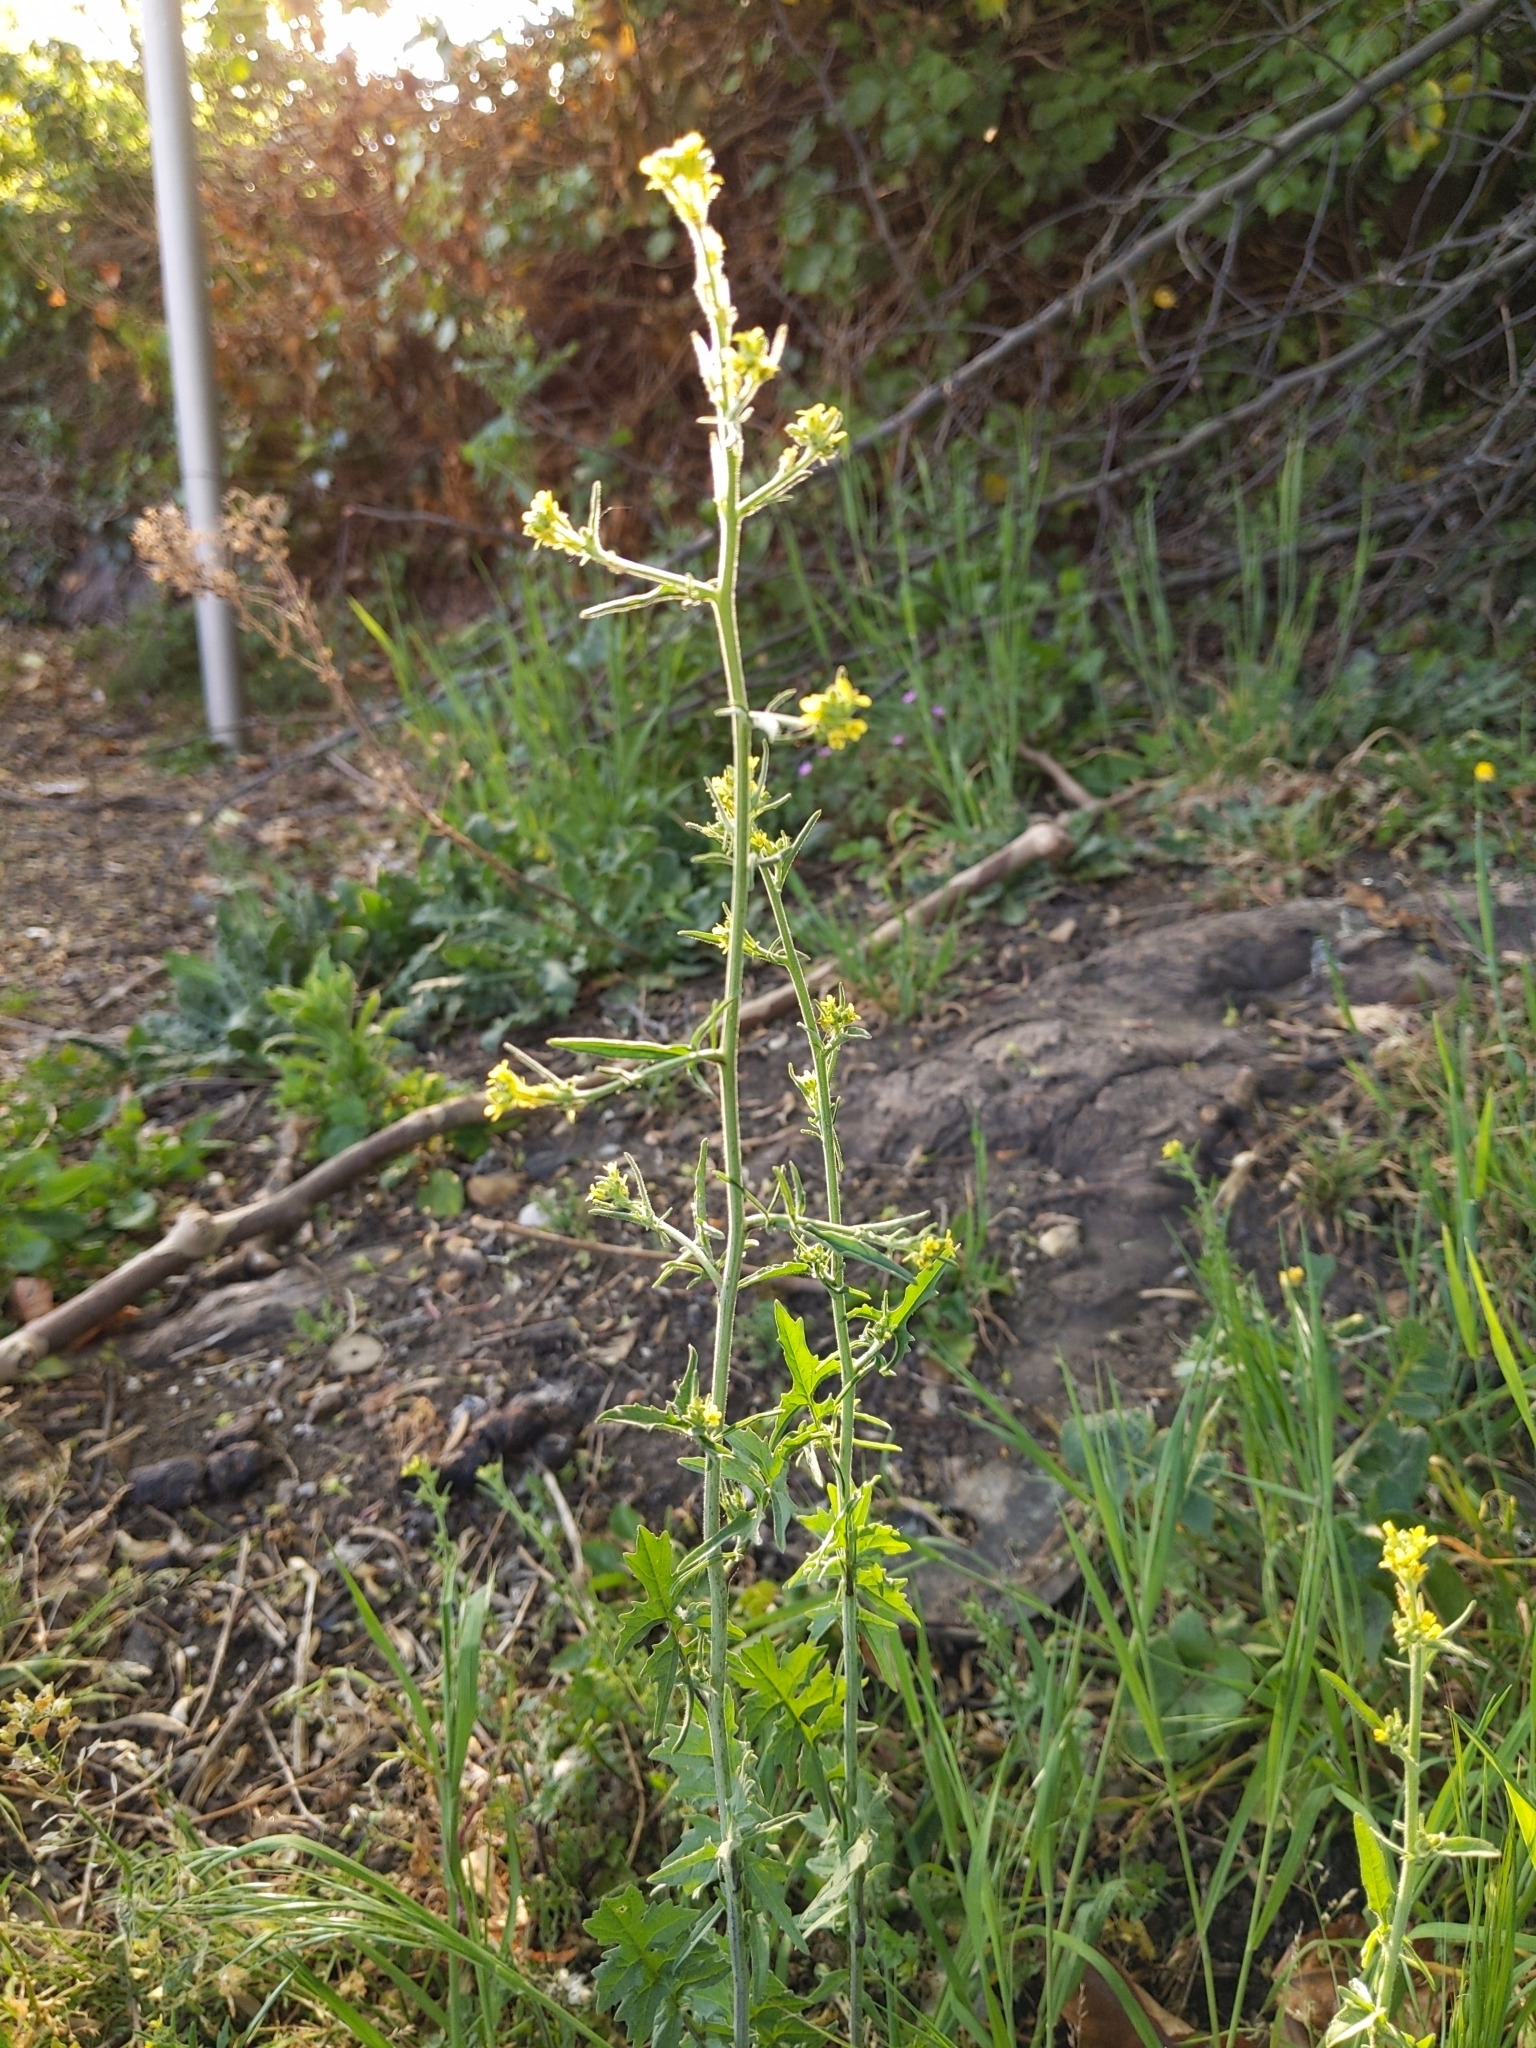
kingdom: Plantae
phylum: Tracheophyta
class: Magnoliopsida
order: Brassicales
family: Brassicaceae
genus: Sisymbrium
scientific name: Sisymbrium officinale
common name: Hedge mustard
